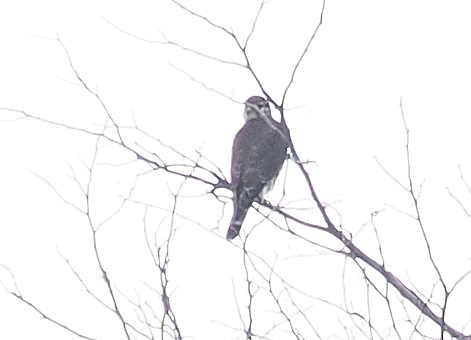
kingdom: Animalia
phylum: Chordata
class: Aves
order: Falconiformes
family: Falconidae
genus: Falco
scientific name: Falco columbarius
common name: Merlin
